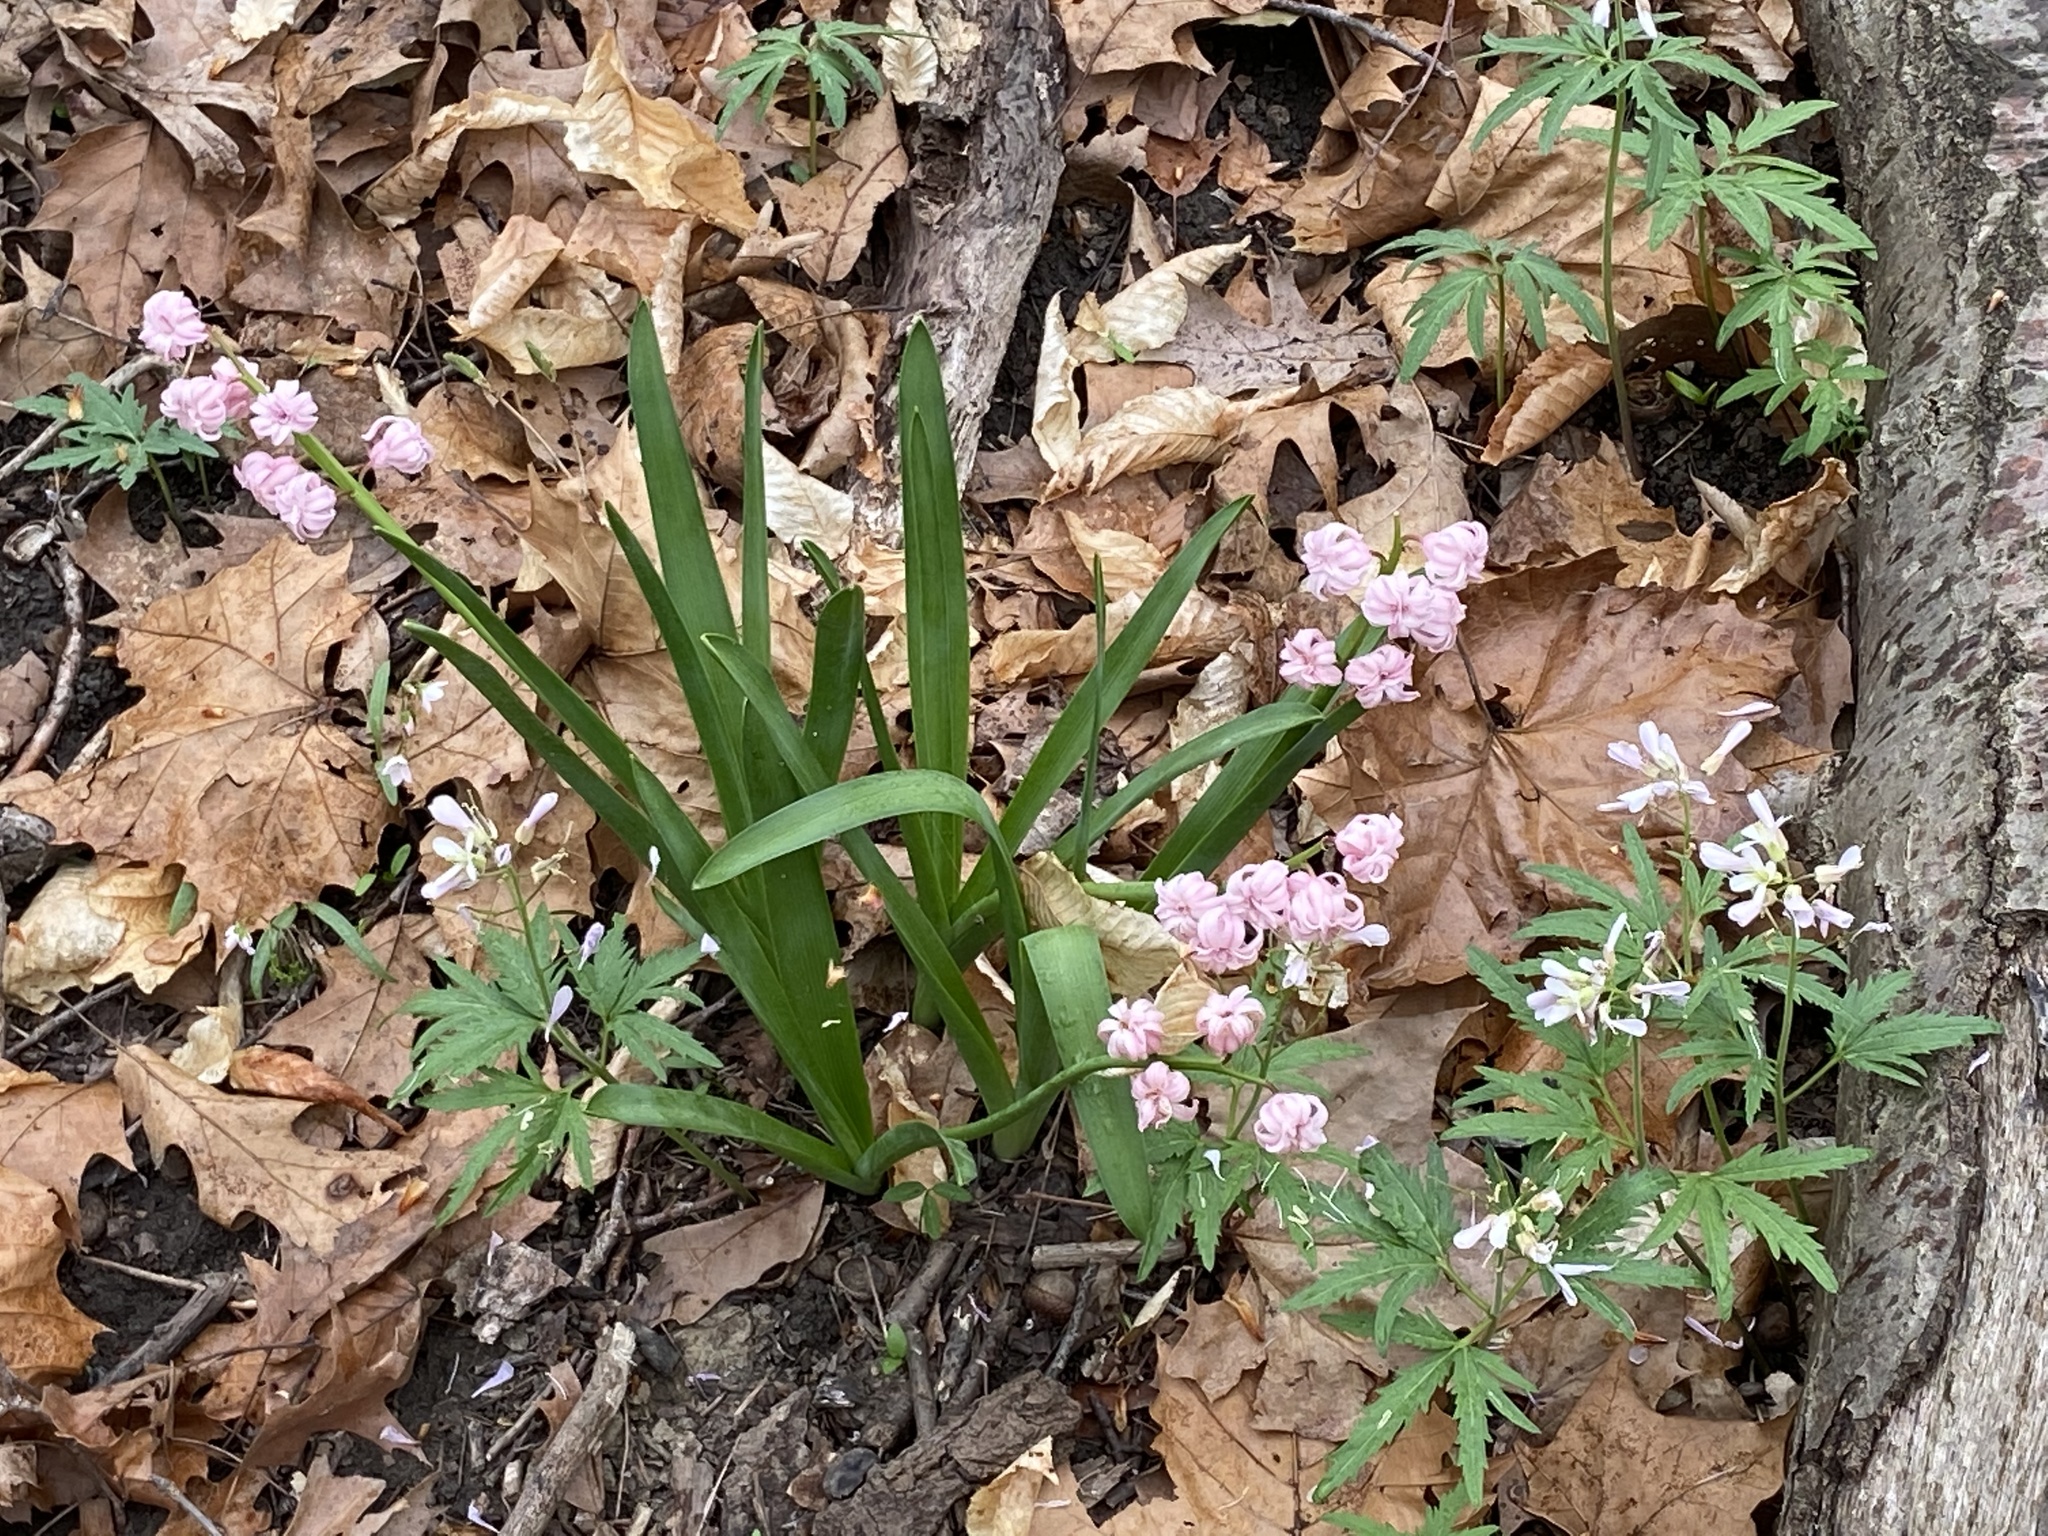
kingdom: Plantae
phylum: Tracheophyta
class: Magnoliopsida
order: Caryophyllales
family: Montiaceae
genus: Claytonia
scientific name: Claytonia virginica
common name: Virginia springbeauty
